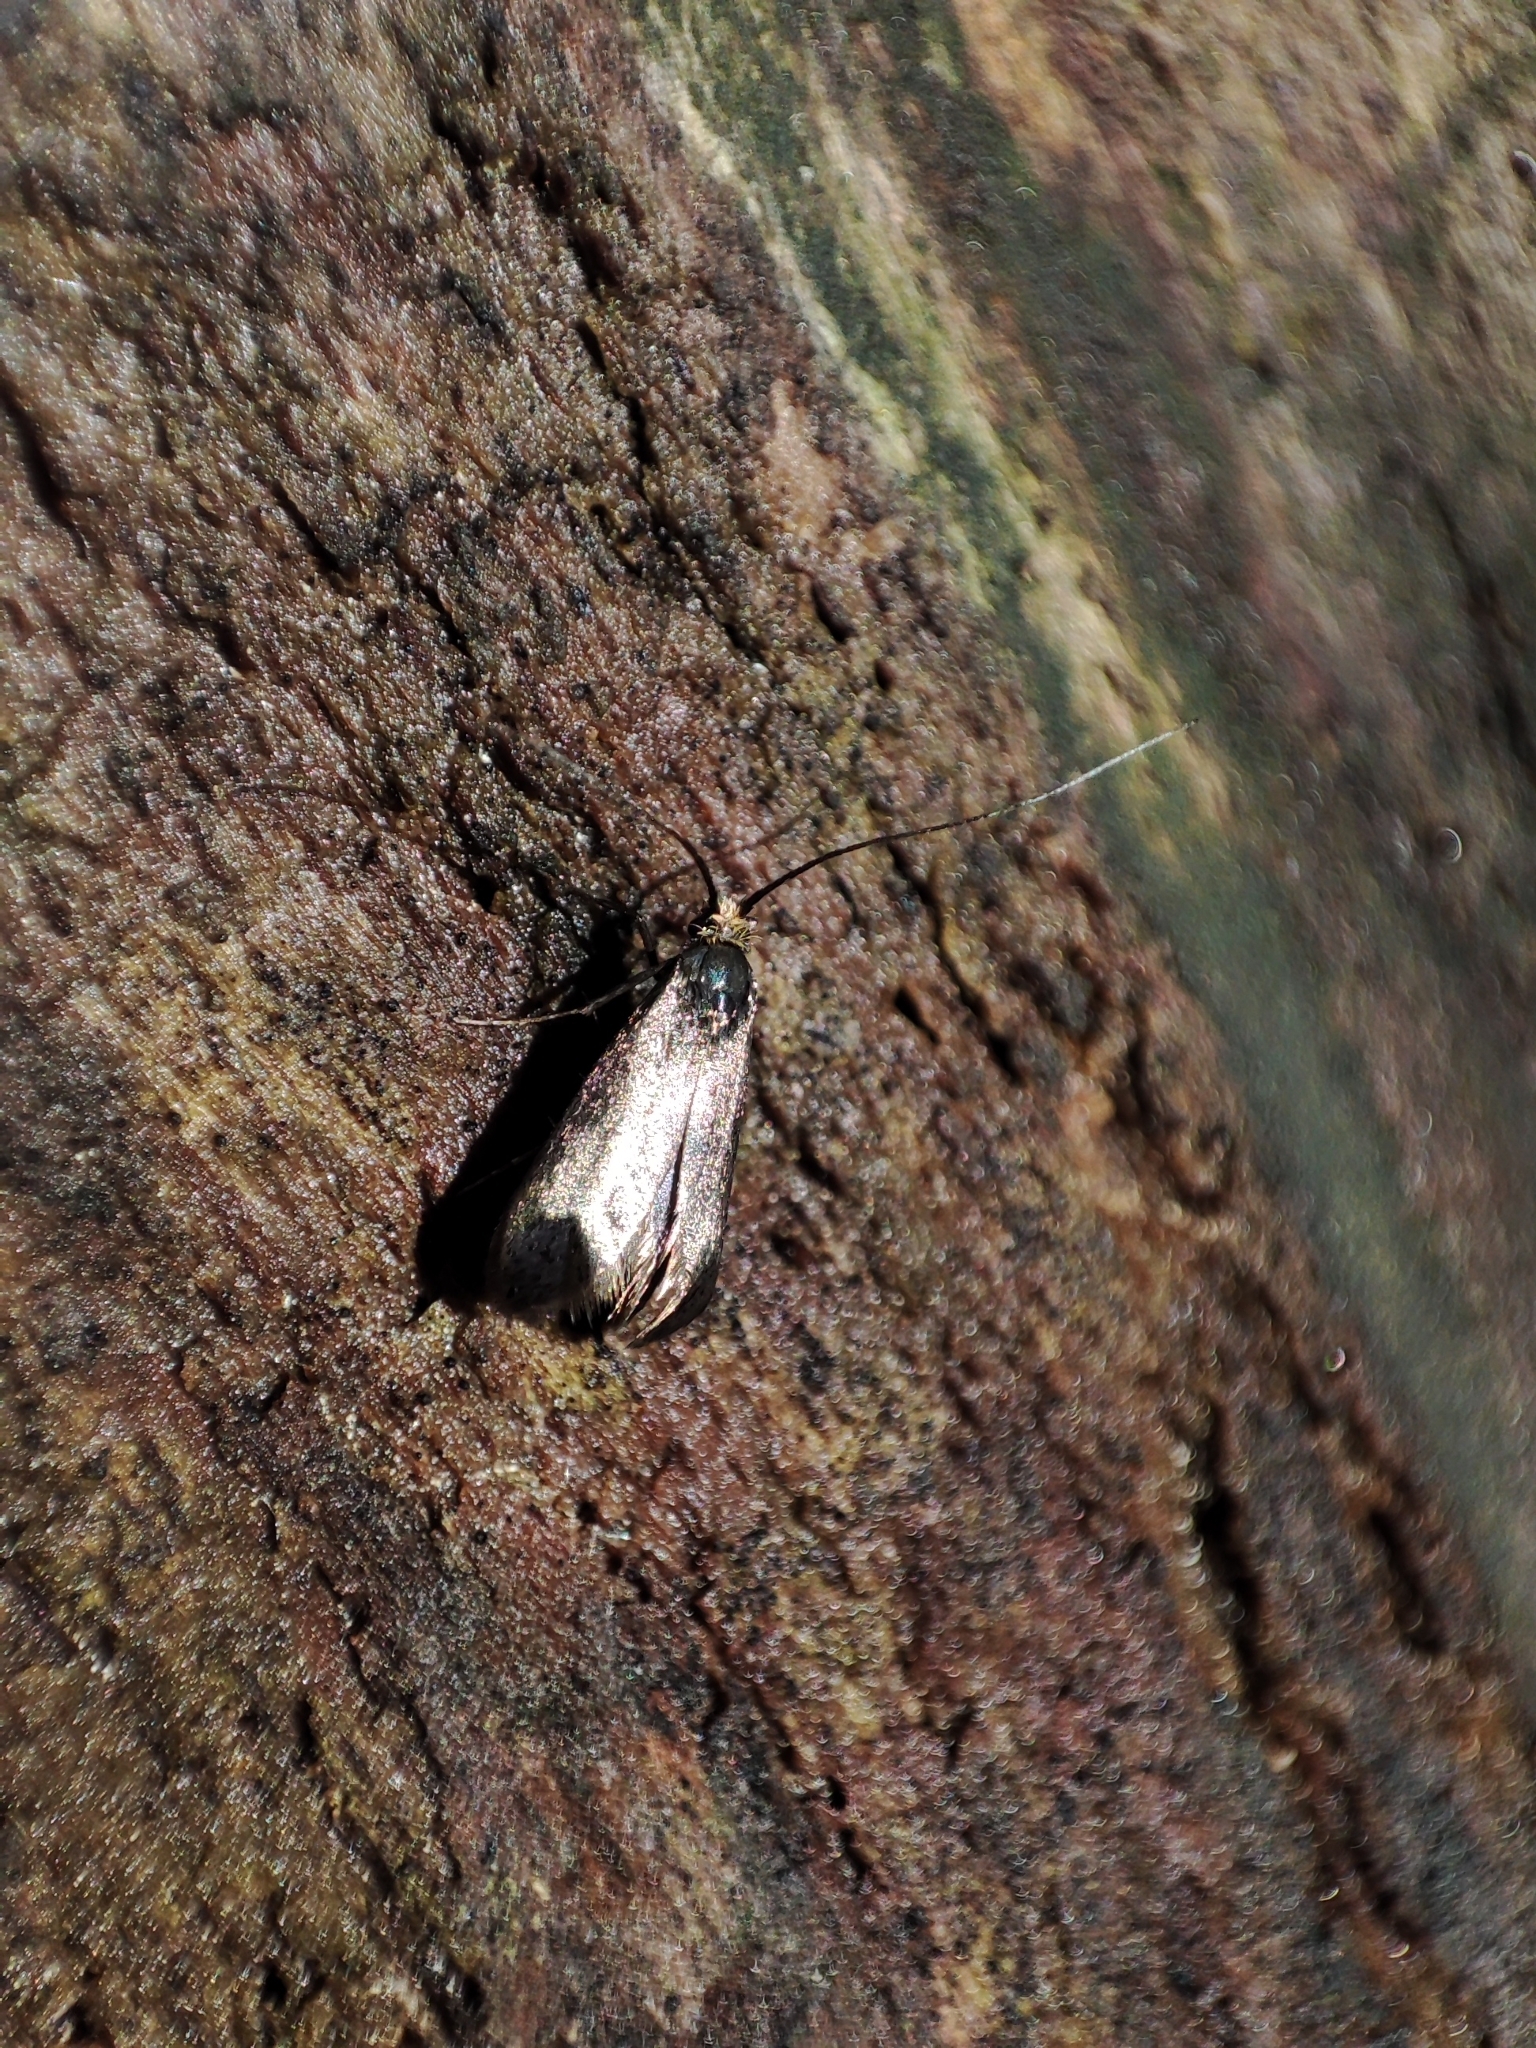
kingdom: Animalia
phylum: Arthropoda
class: Insecta
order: Lepidoptera
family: Adelidae
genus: Adela
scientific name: Adela viridella
